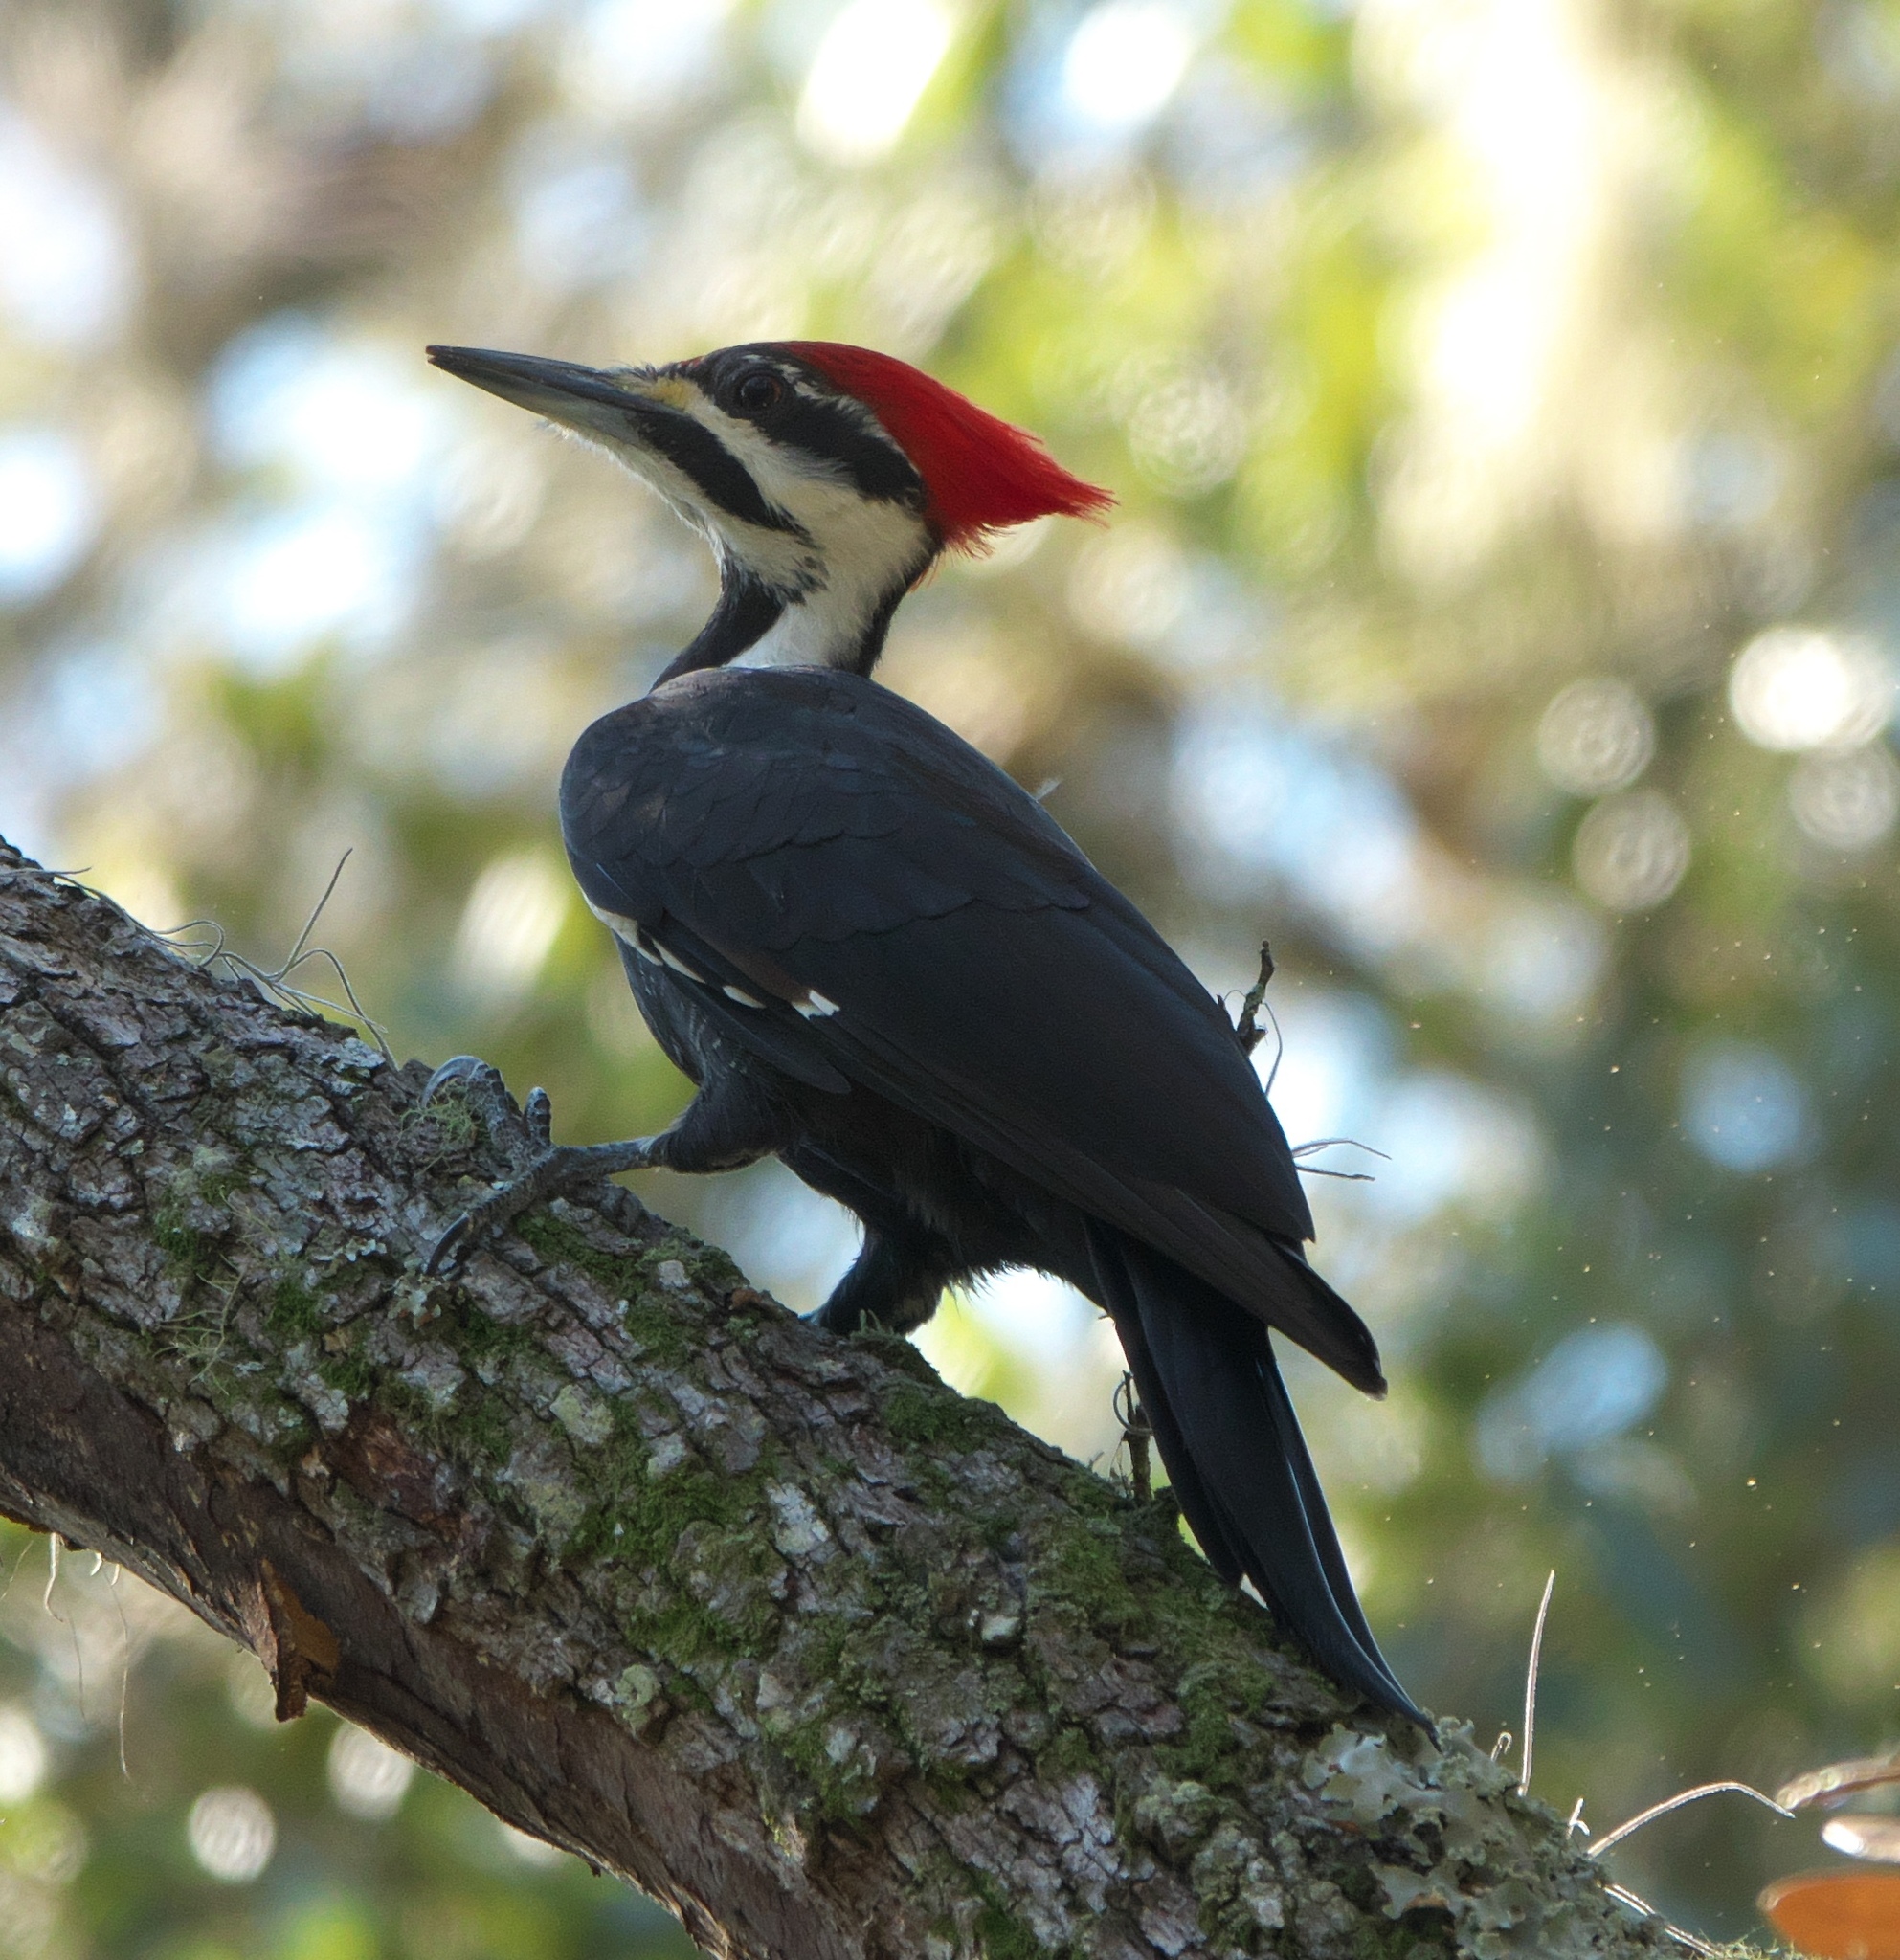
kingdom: Animalia
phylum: Chordata
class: Aves
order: Piciformes
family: Picidae
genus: Dryocopus
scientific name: Dryocopus pileatus
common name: Pileated woodpecker
